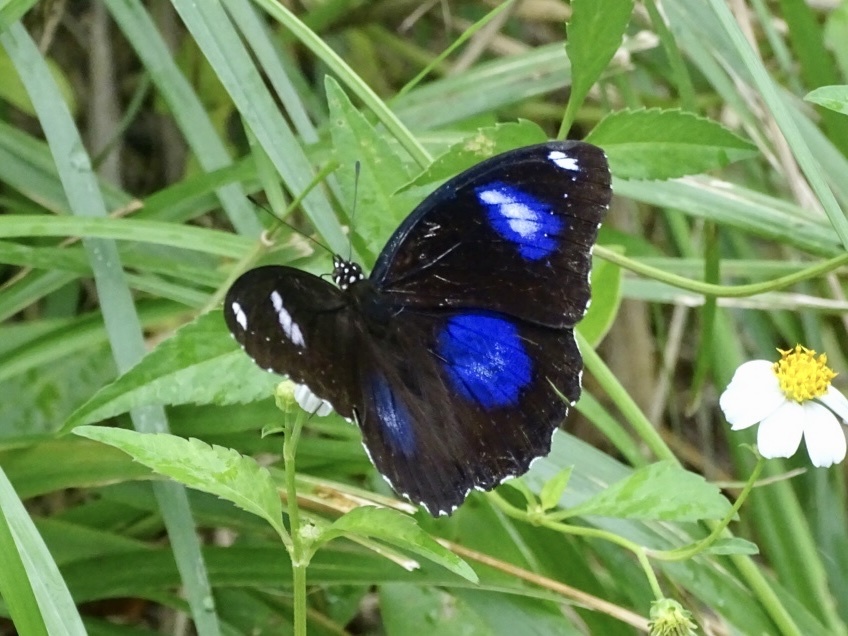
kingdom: Animalia
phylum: Arthropoda
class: Insecta
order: Lepidoptera
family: Nymphalidae
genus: Hypolimnas
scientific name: Hypolimnas bolina
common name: Great eggfly
